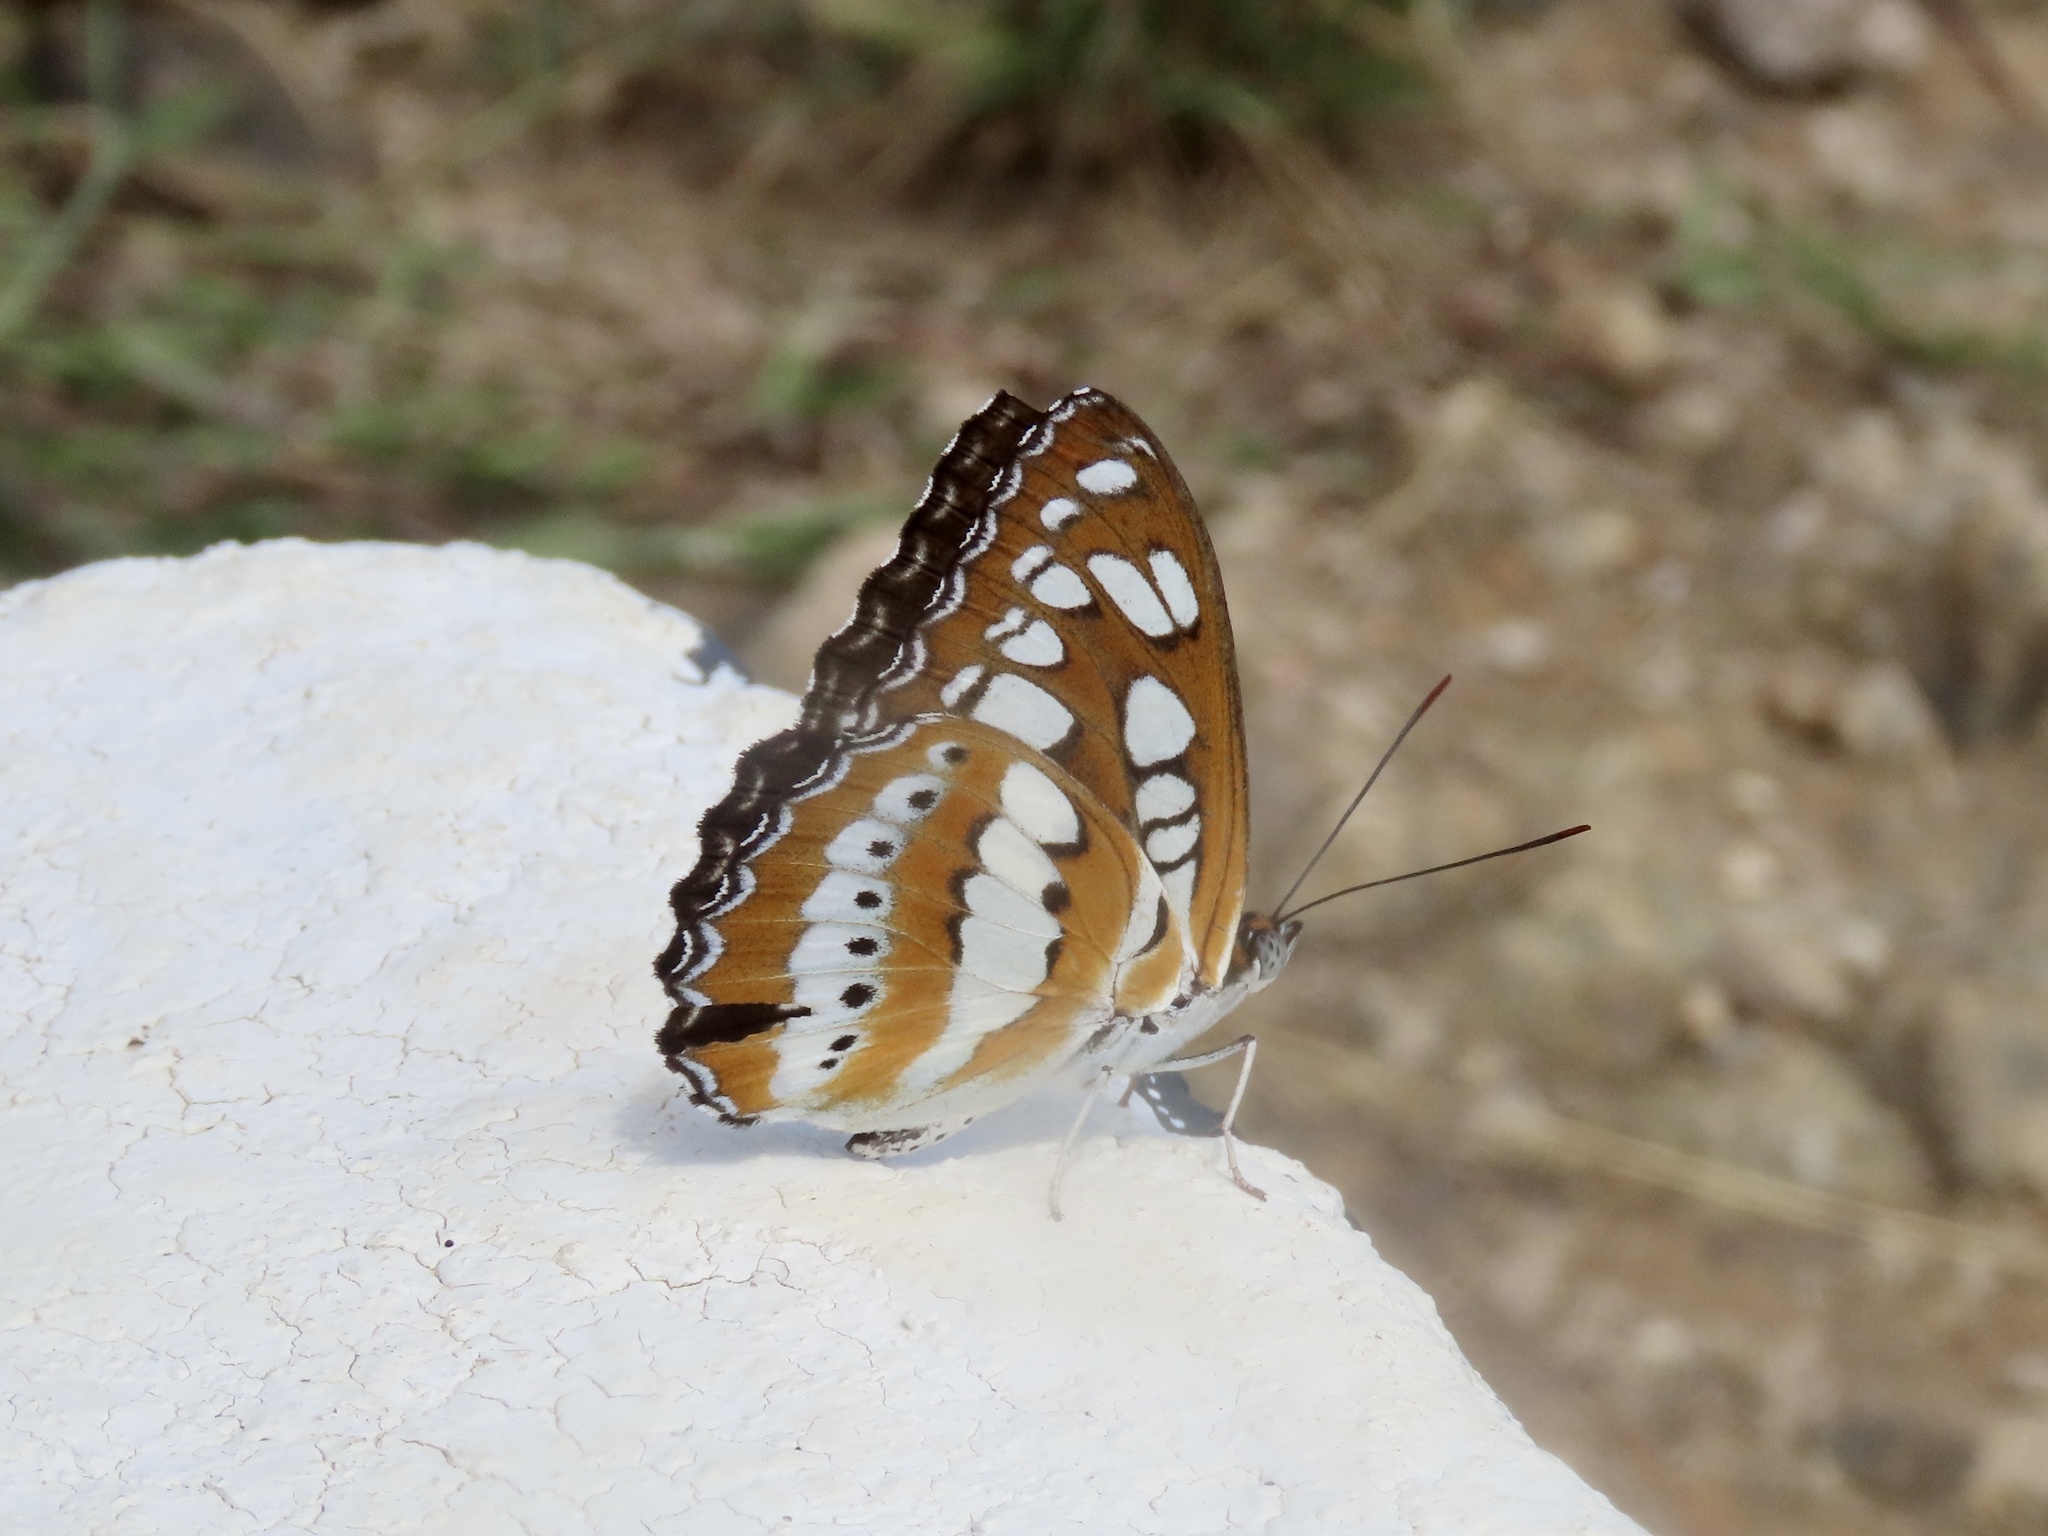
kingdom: Animalia
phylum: Arthropoda
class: Insecta
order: Lepidoptera
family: Nymphalidae
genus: Parathyma
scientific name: Parathyma perius
